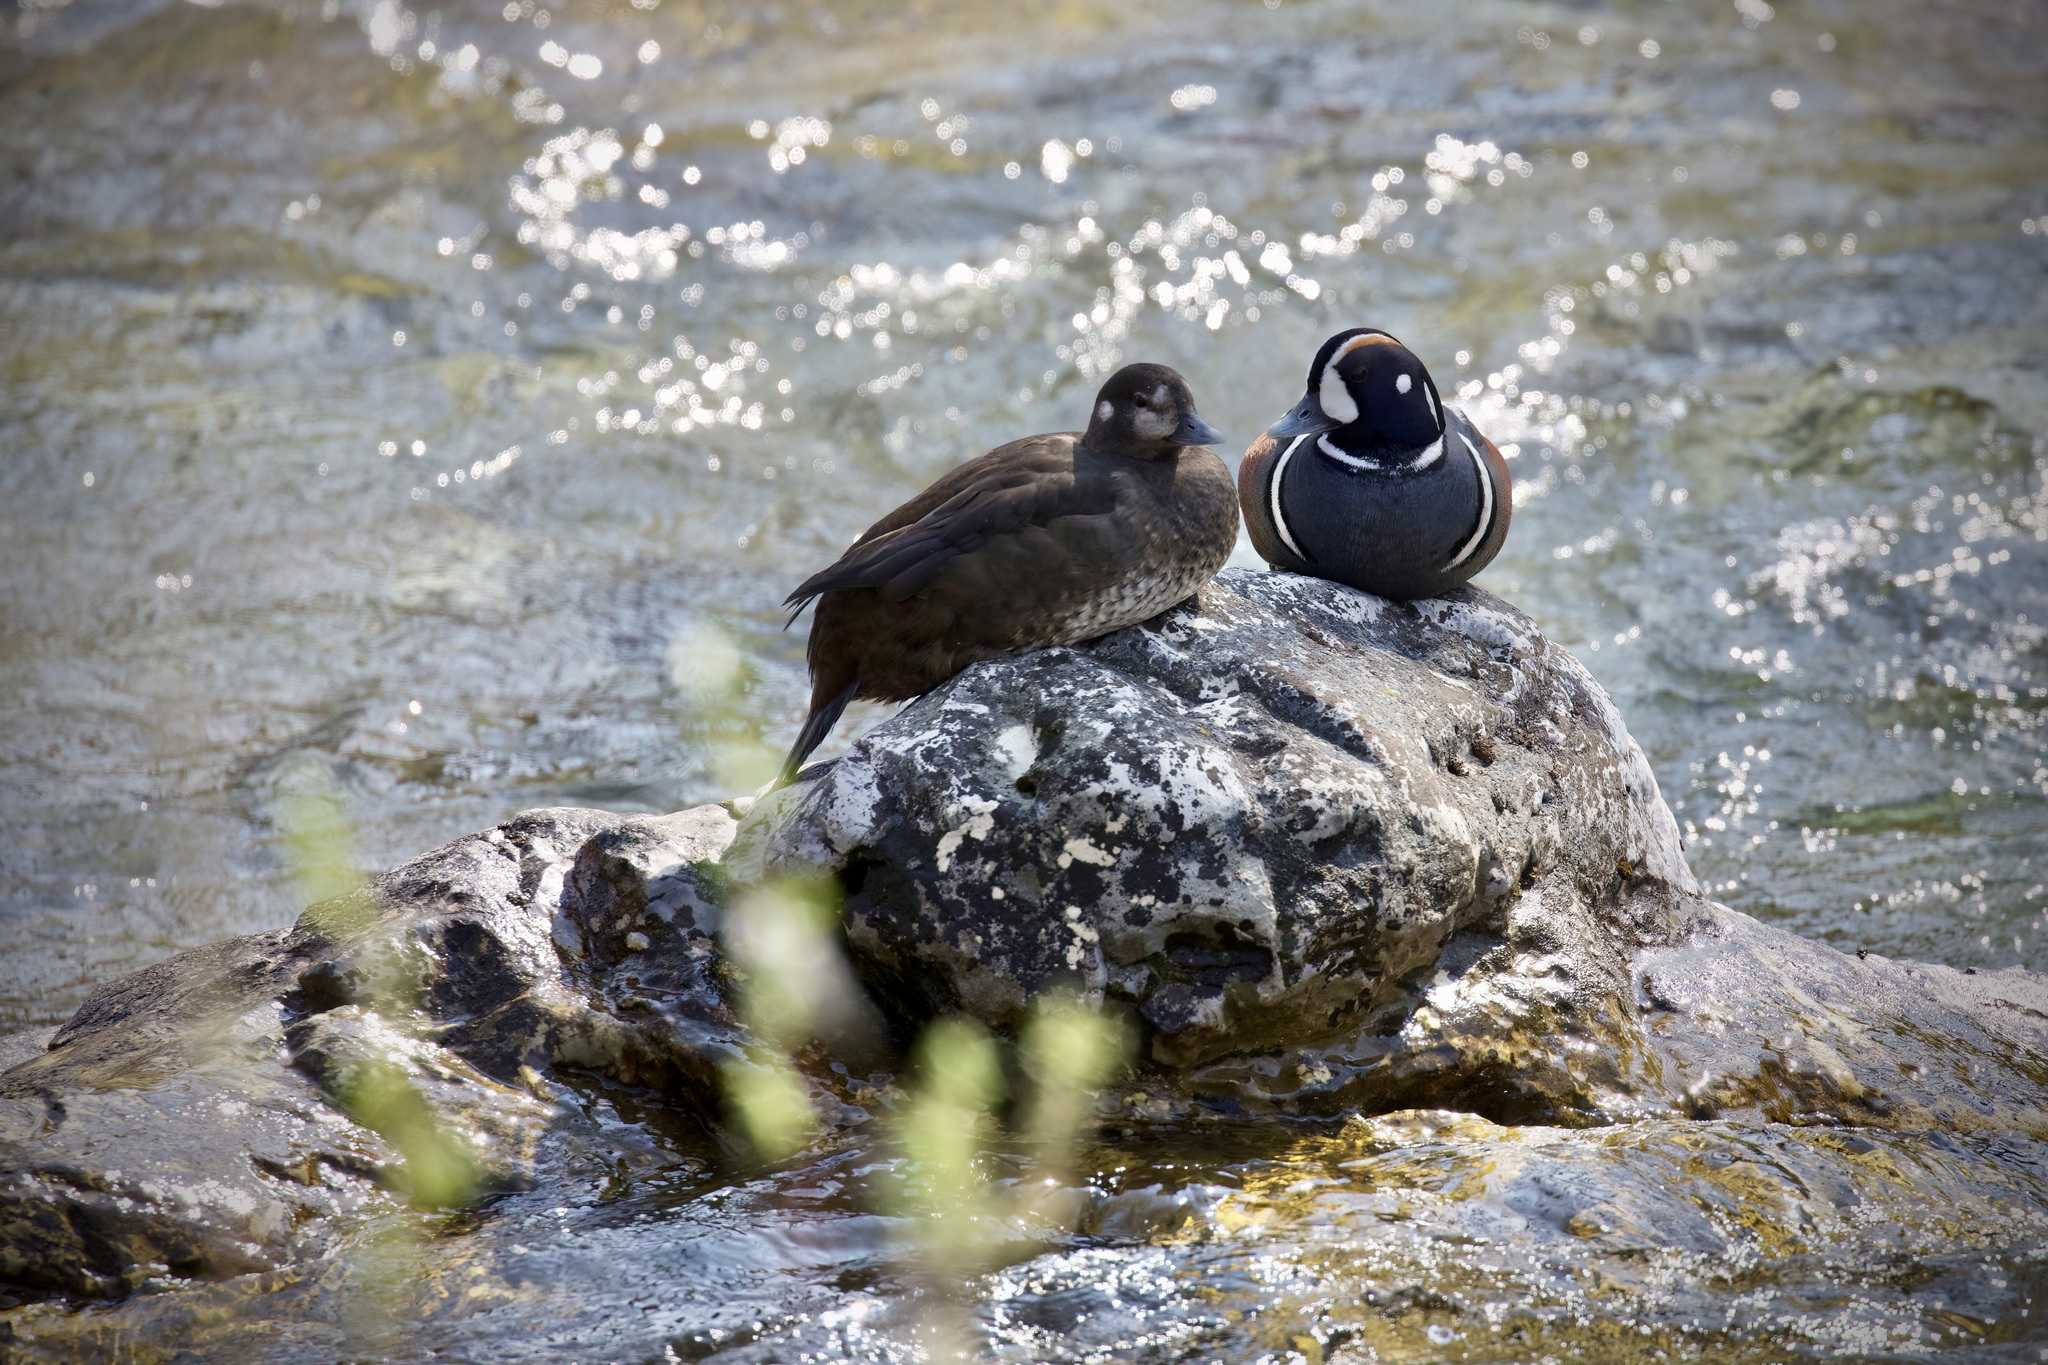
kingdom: Animalia
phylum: Chordata
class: Aves
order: Anseriformes
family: Anatidae
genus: Histrionicus
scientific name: Histrionicus histrionicus
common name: Harlequin duck
